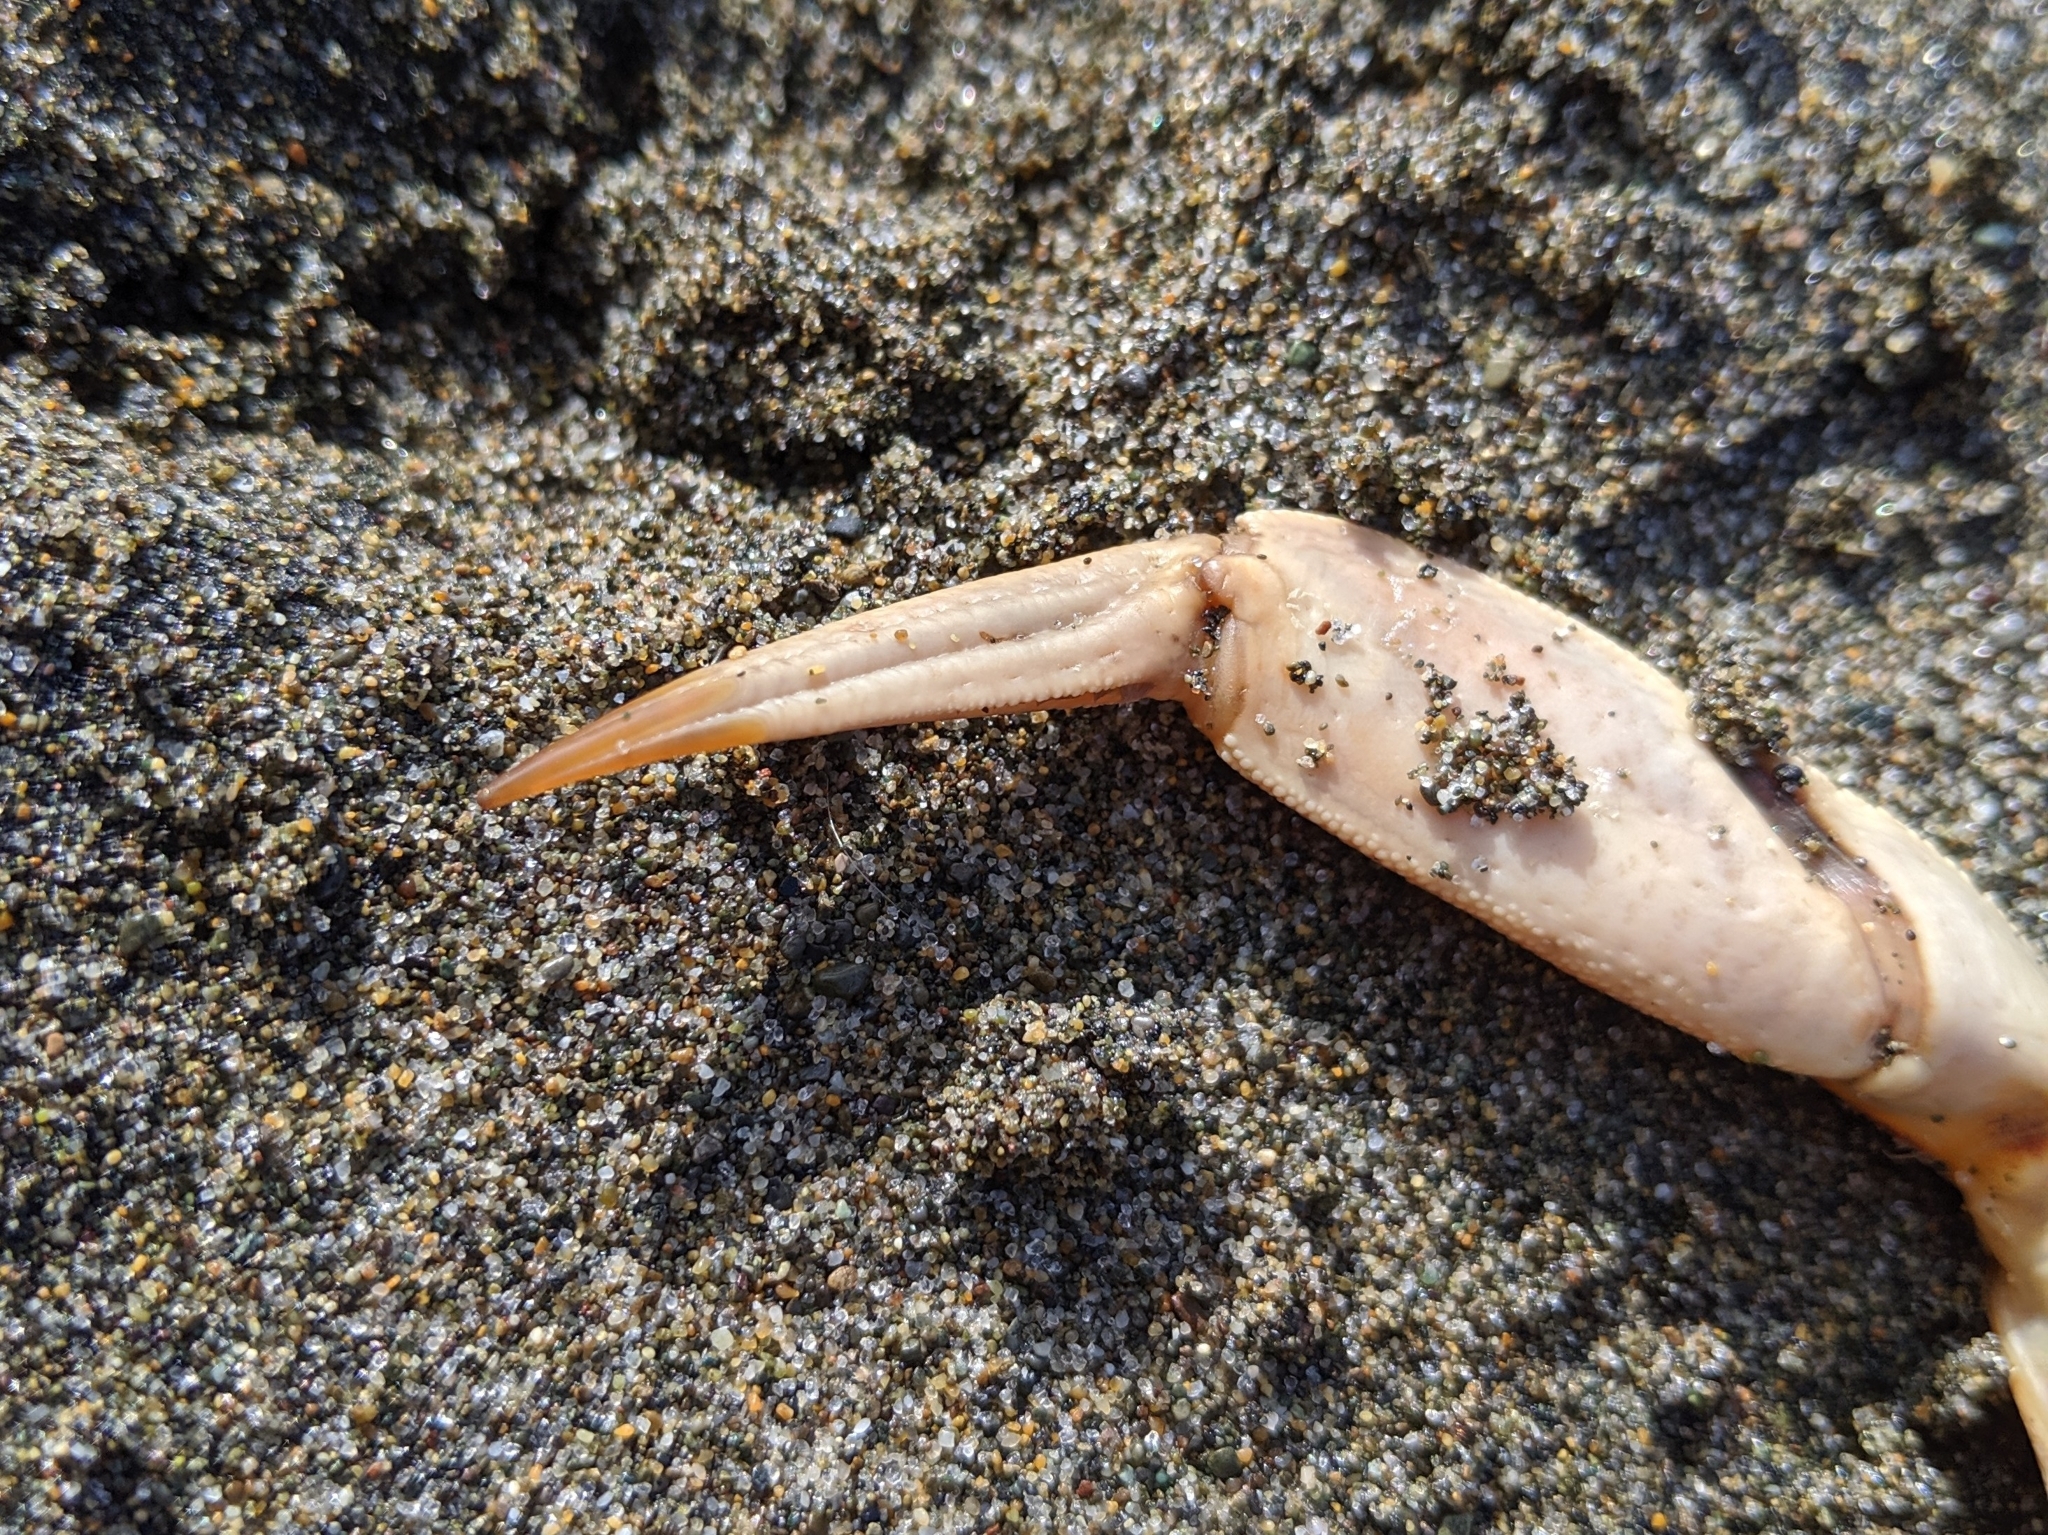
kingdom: Animalia
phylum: Arthropoda
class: Malacostraca
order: Decapoda
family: Cancridae
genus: Metacarcinus
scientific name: Metacarcinus magister
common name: Californian crab
